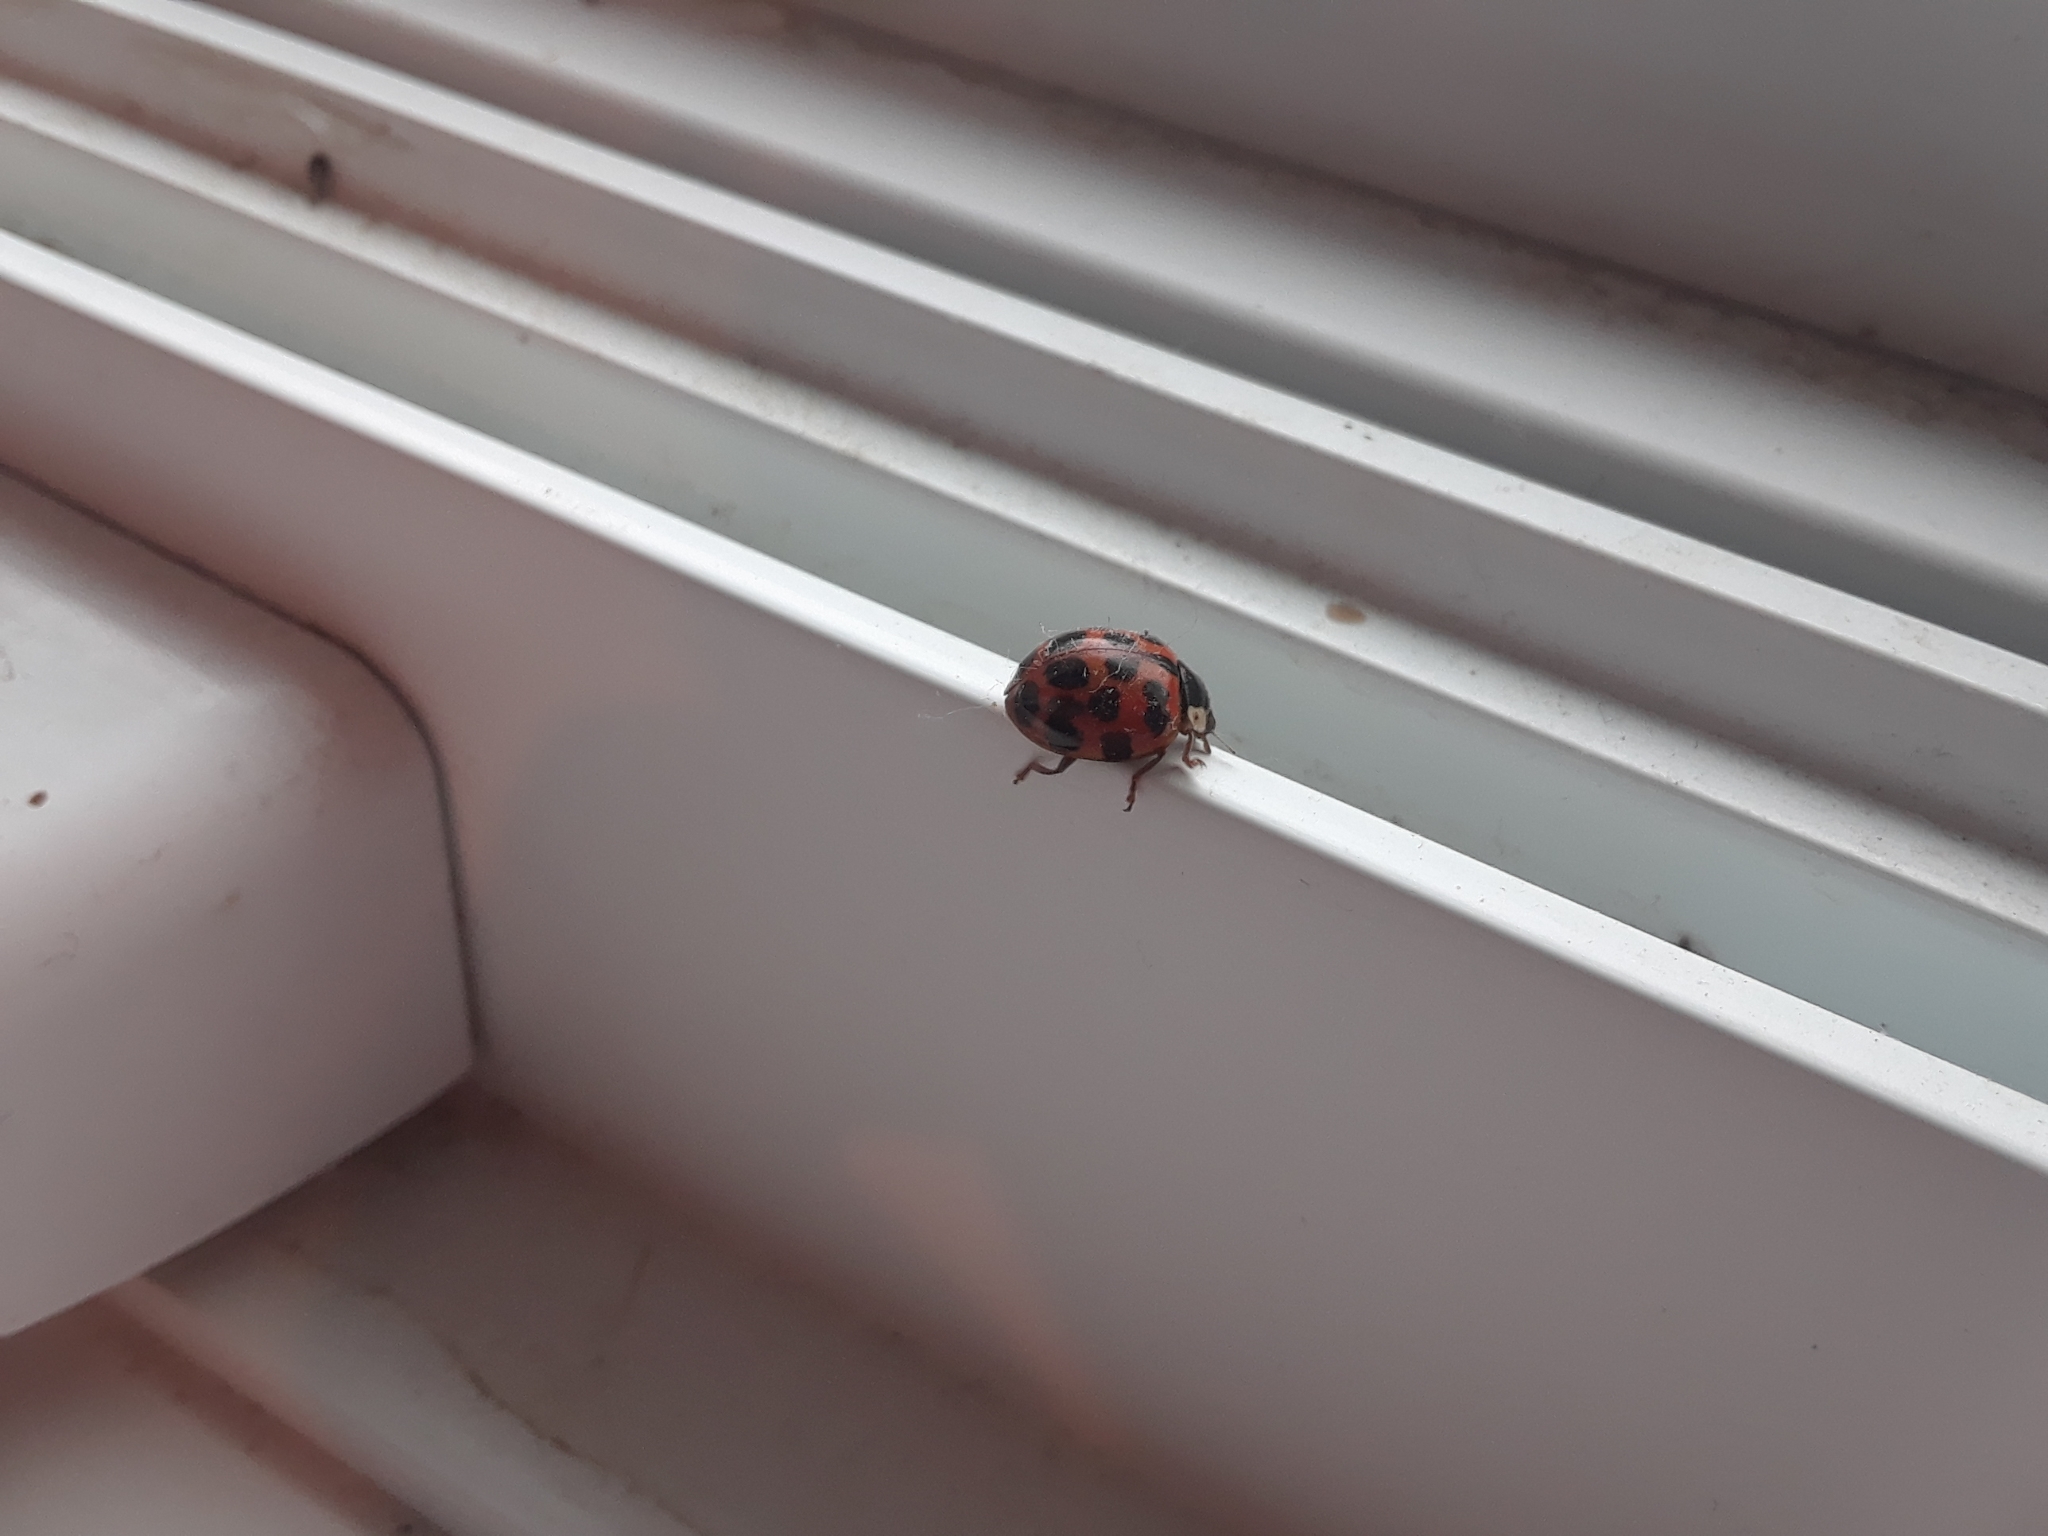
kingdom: Animalia
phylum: Arthropoda
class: Insecta
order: Coleoptera
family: Coccinellidae
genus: Harmonia
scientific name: Harmonia axyridis
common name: Harlequin ladybird
